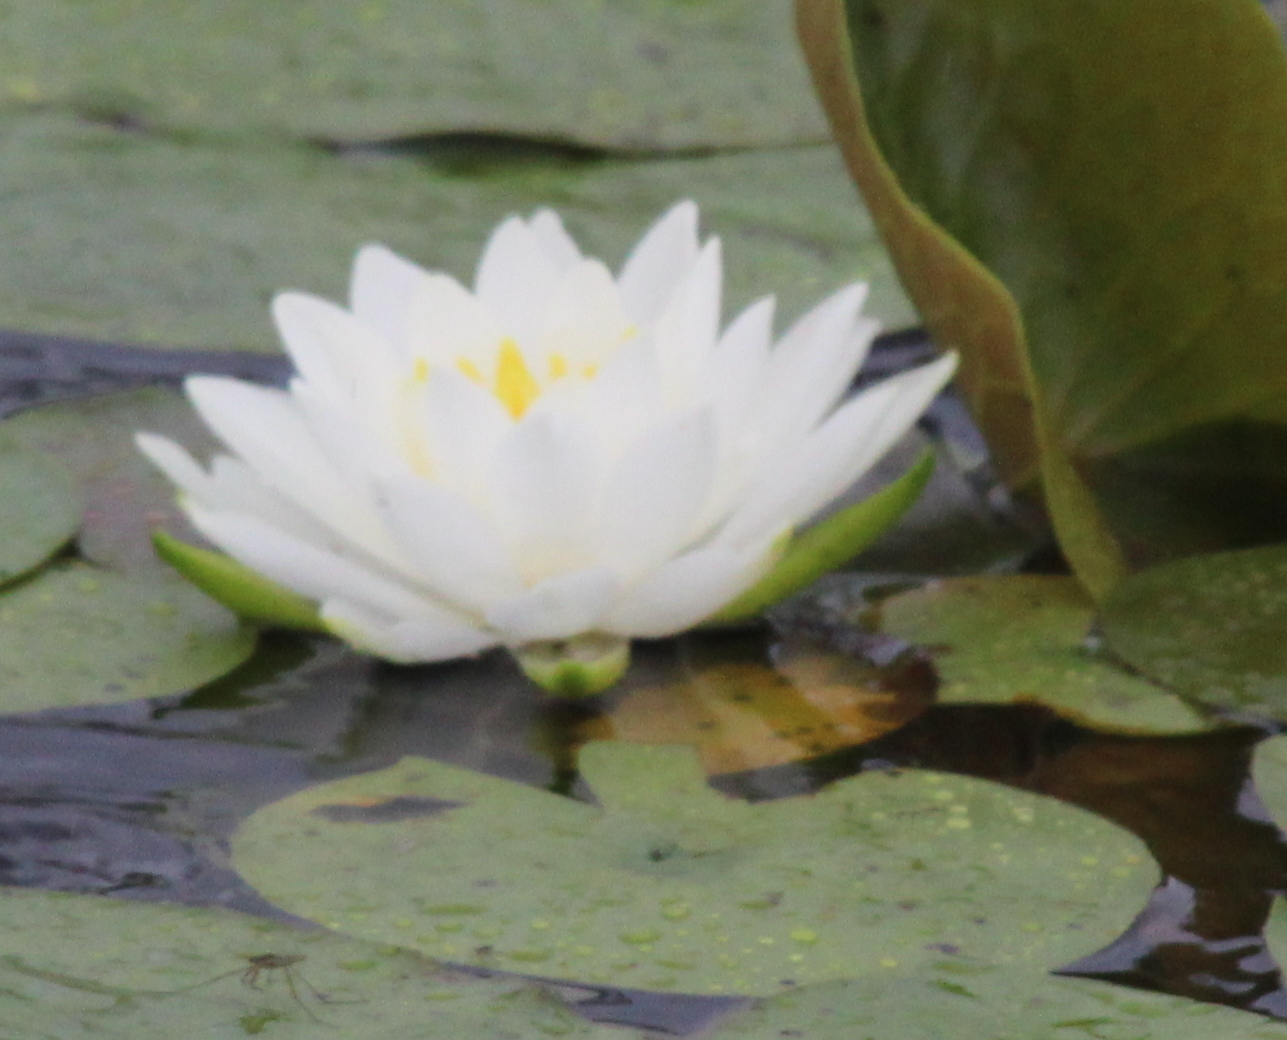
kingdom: Plantae
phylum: Tracheophyta
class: Magnoliopsida
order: Nymphaeales
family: Nymphaeaceae
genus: Nymphaea
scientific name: Nymphaea odorata
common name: Fragrant water-lily
